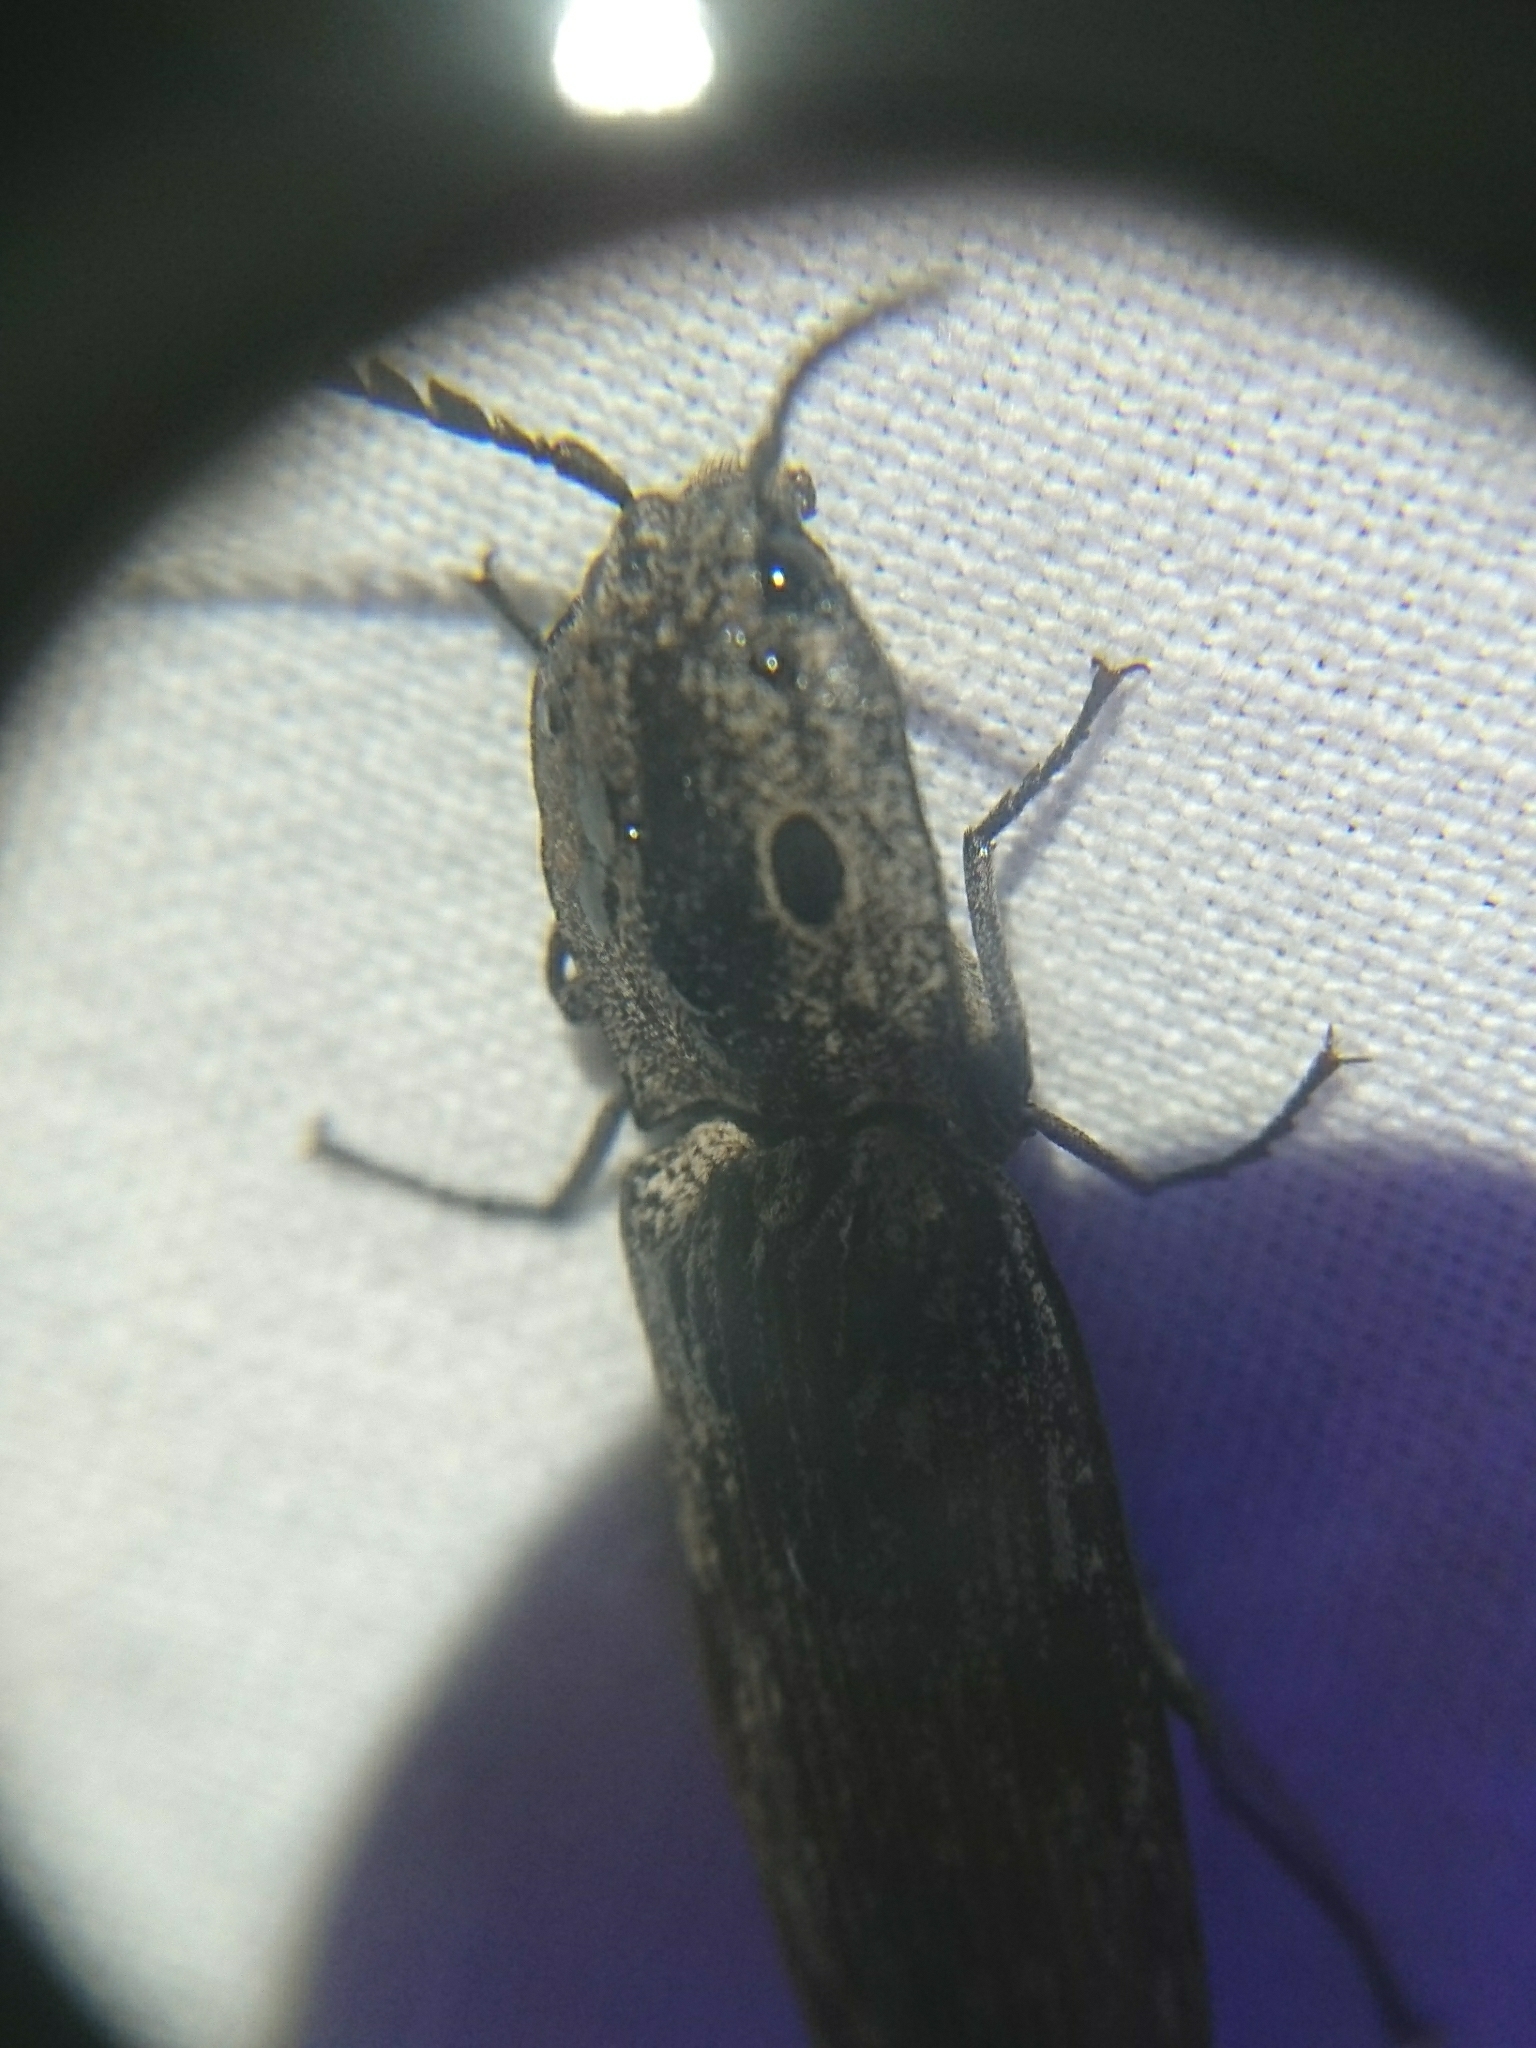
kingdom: Animalia
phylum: Arthropoda
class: Insecta
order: Coleoptera
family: Elateridae
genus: Alaus
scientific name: Alaus myops
